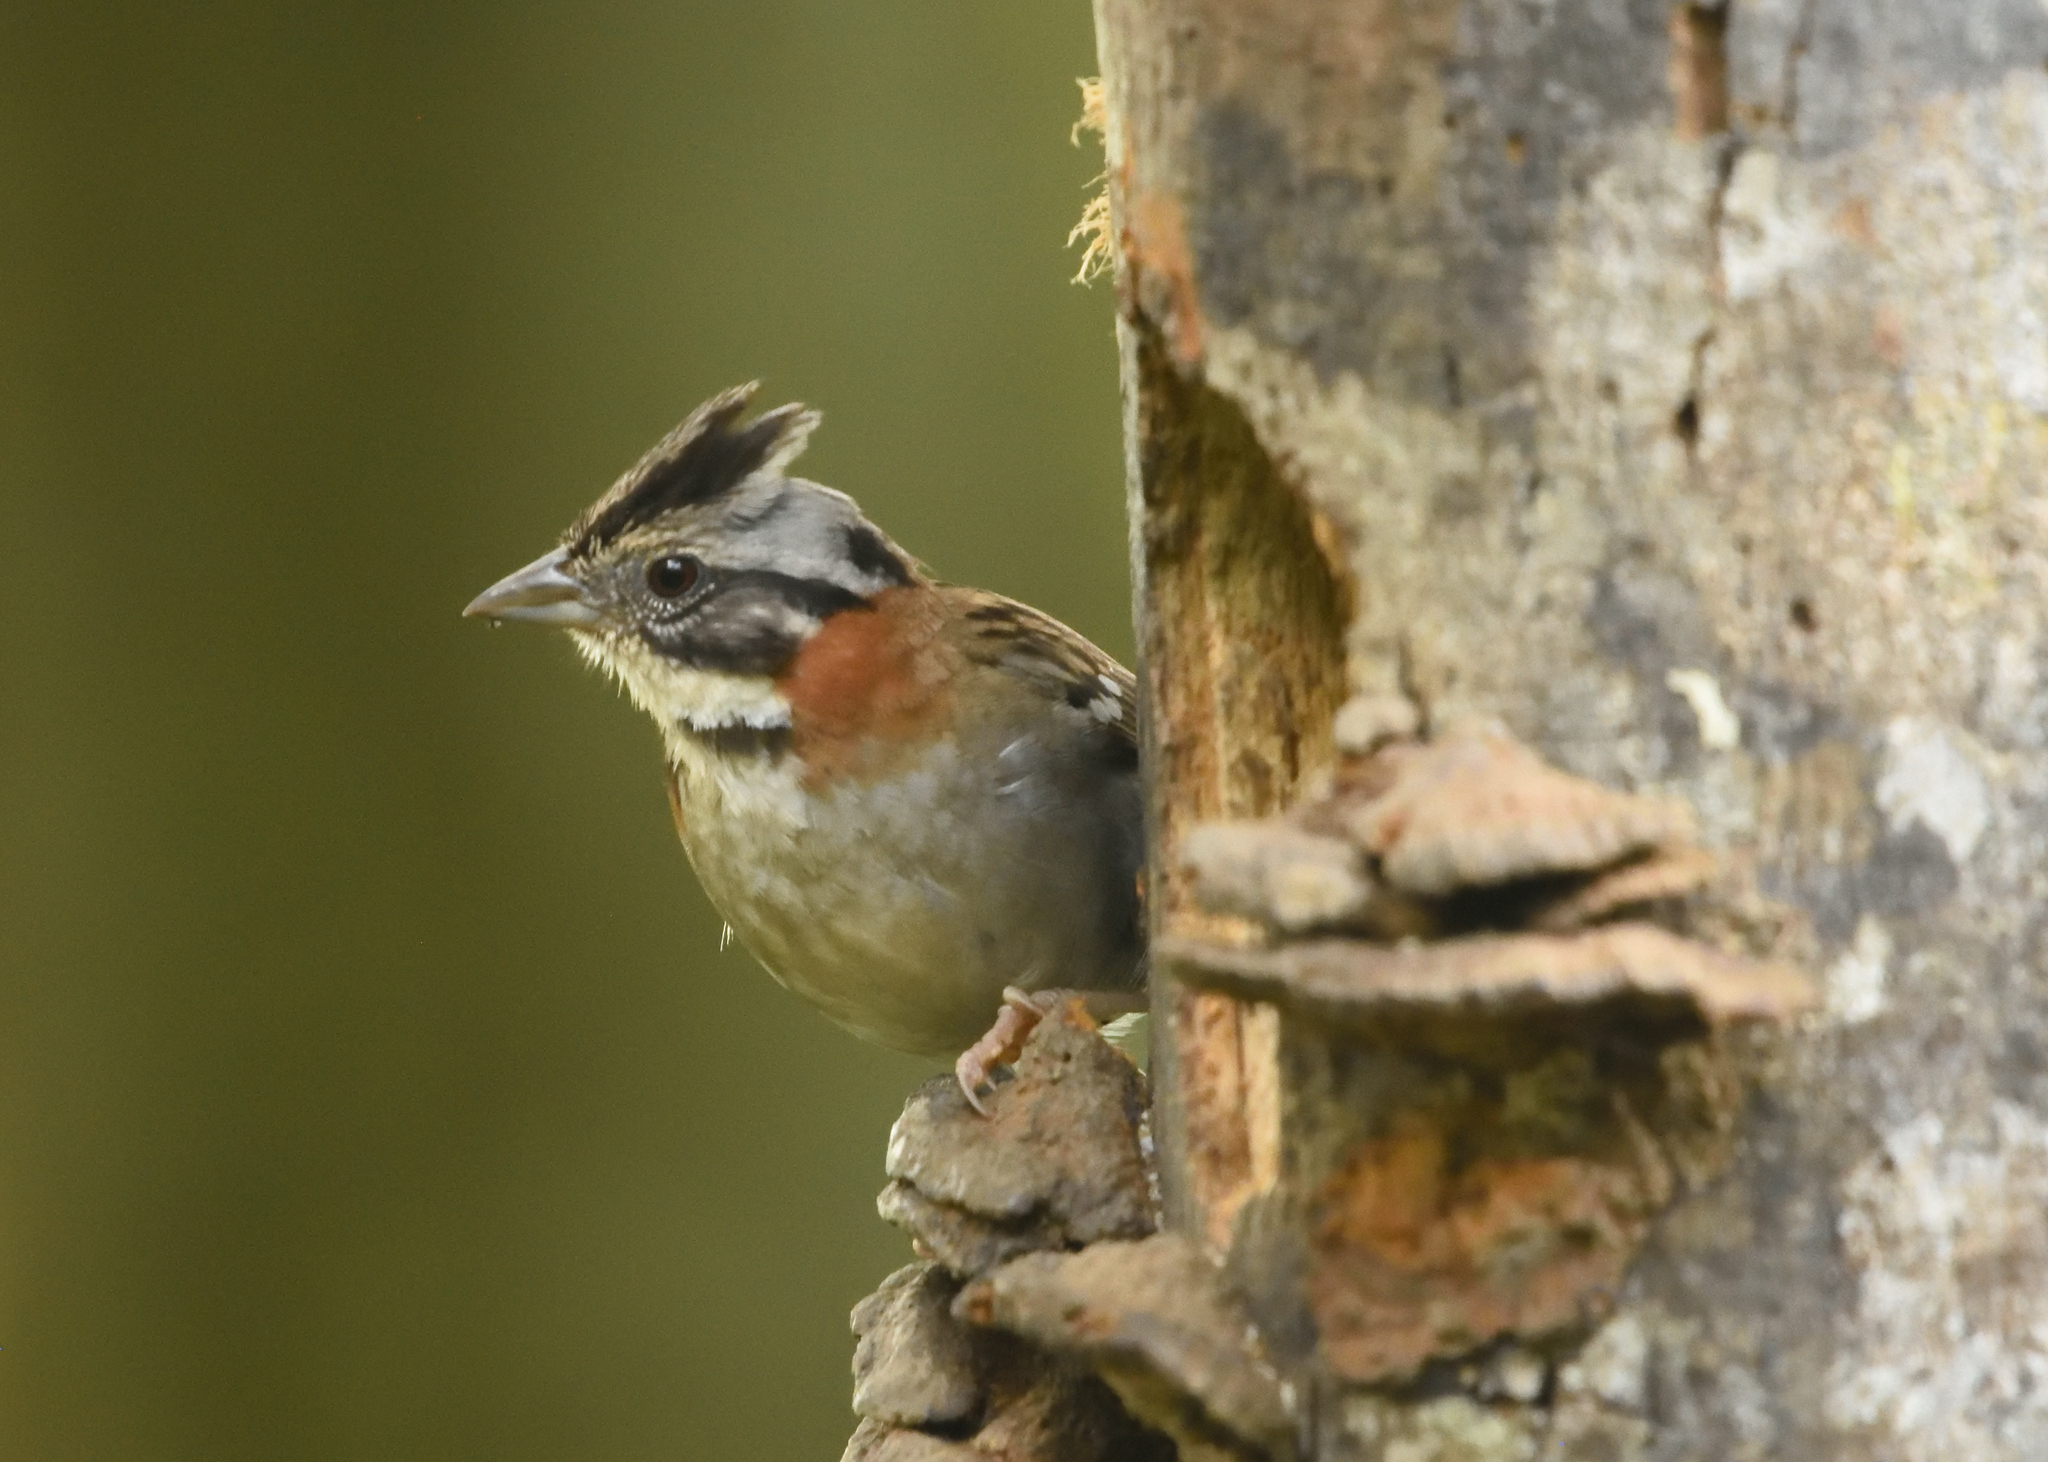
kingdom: Animalia
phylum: Chordata
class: Aves
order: Passeriformes
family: Passerellidae
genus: Zonotrichia
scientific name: Zonotrichia capensis
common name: Rufous-collared sparrow
